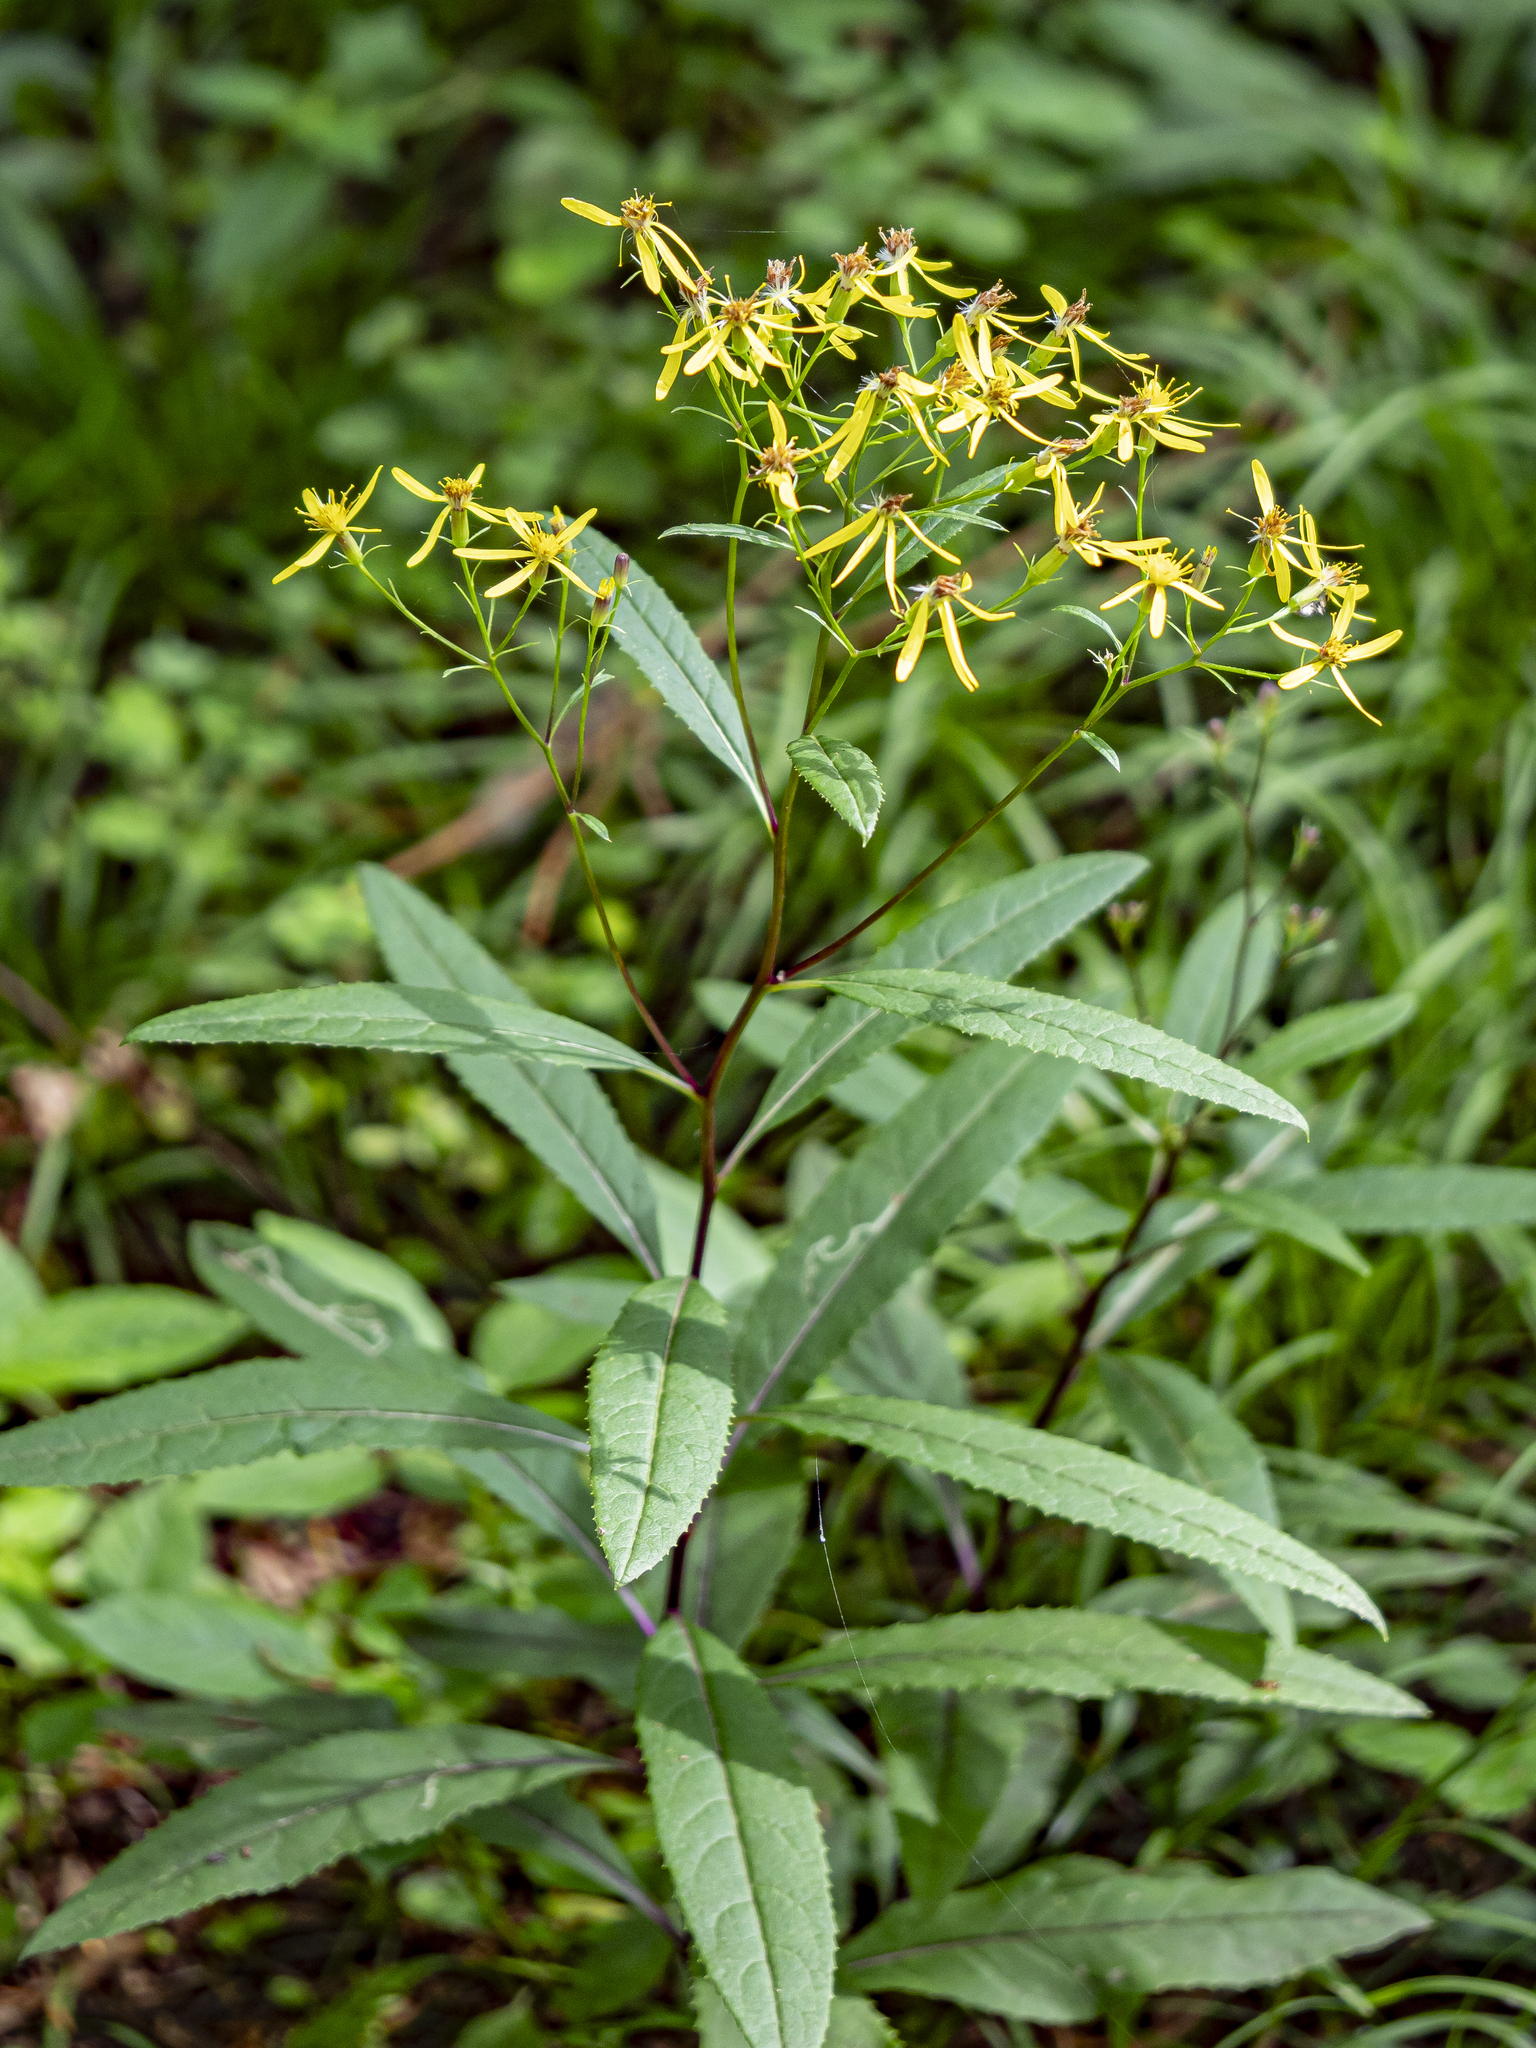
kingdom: Plantae
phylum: Tracheophyta
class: Magnoliopsida
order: Asterales
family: Asteraceae
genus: Senecio
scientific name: Senecio ovatus
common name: Wood ragwort
